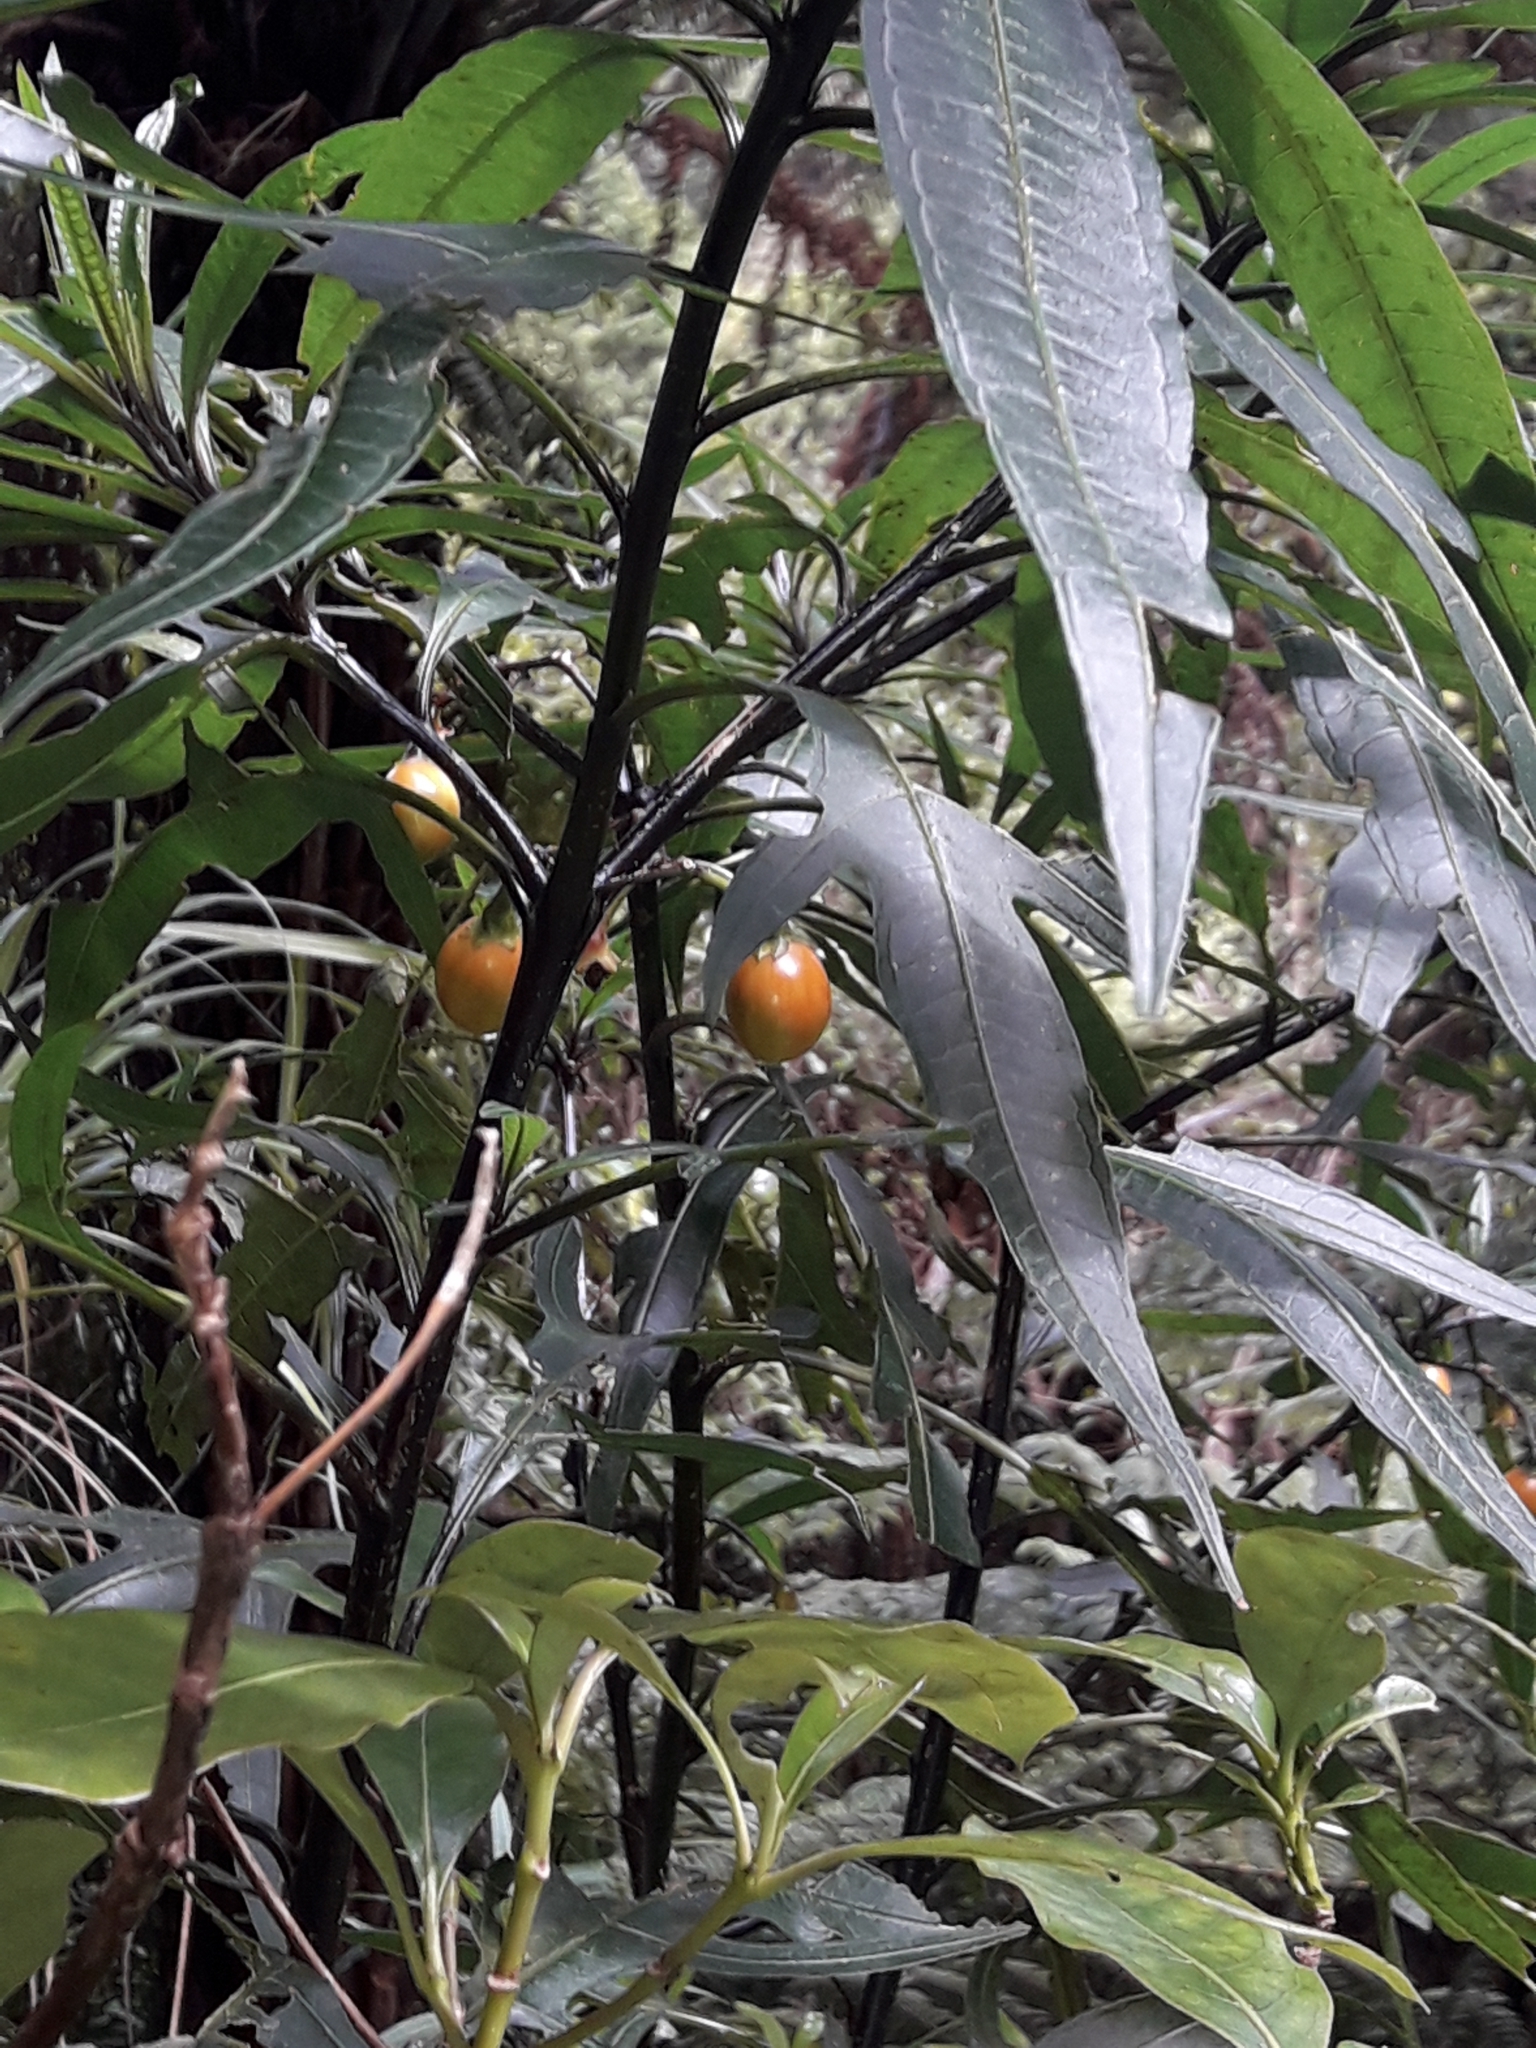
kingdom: Plantae
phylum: Tracheophyta
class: Magnoliopsida
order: Solanales
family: Solanaceae
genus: Solanum
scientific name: Solanum aviculare
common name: New zealand nightshade
